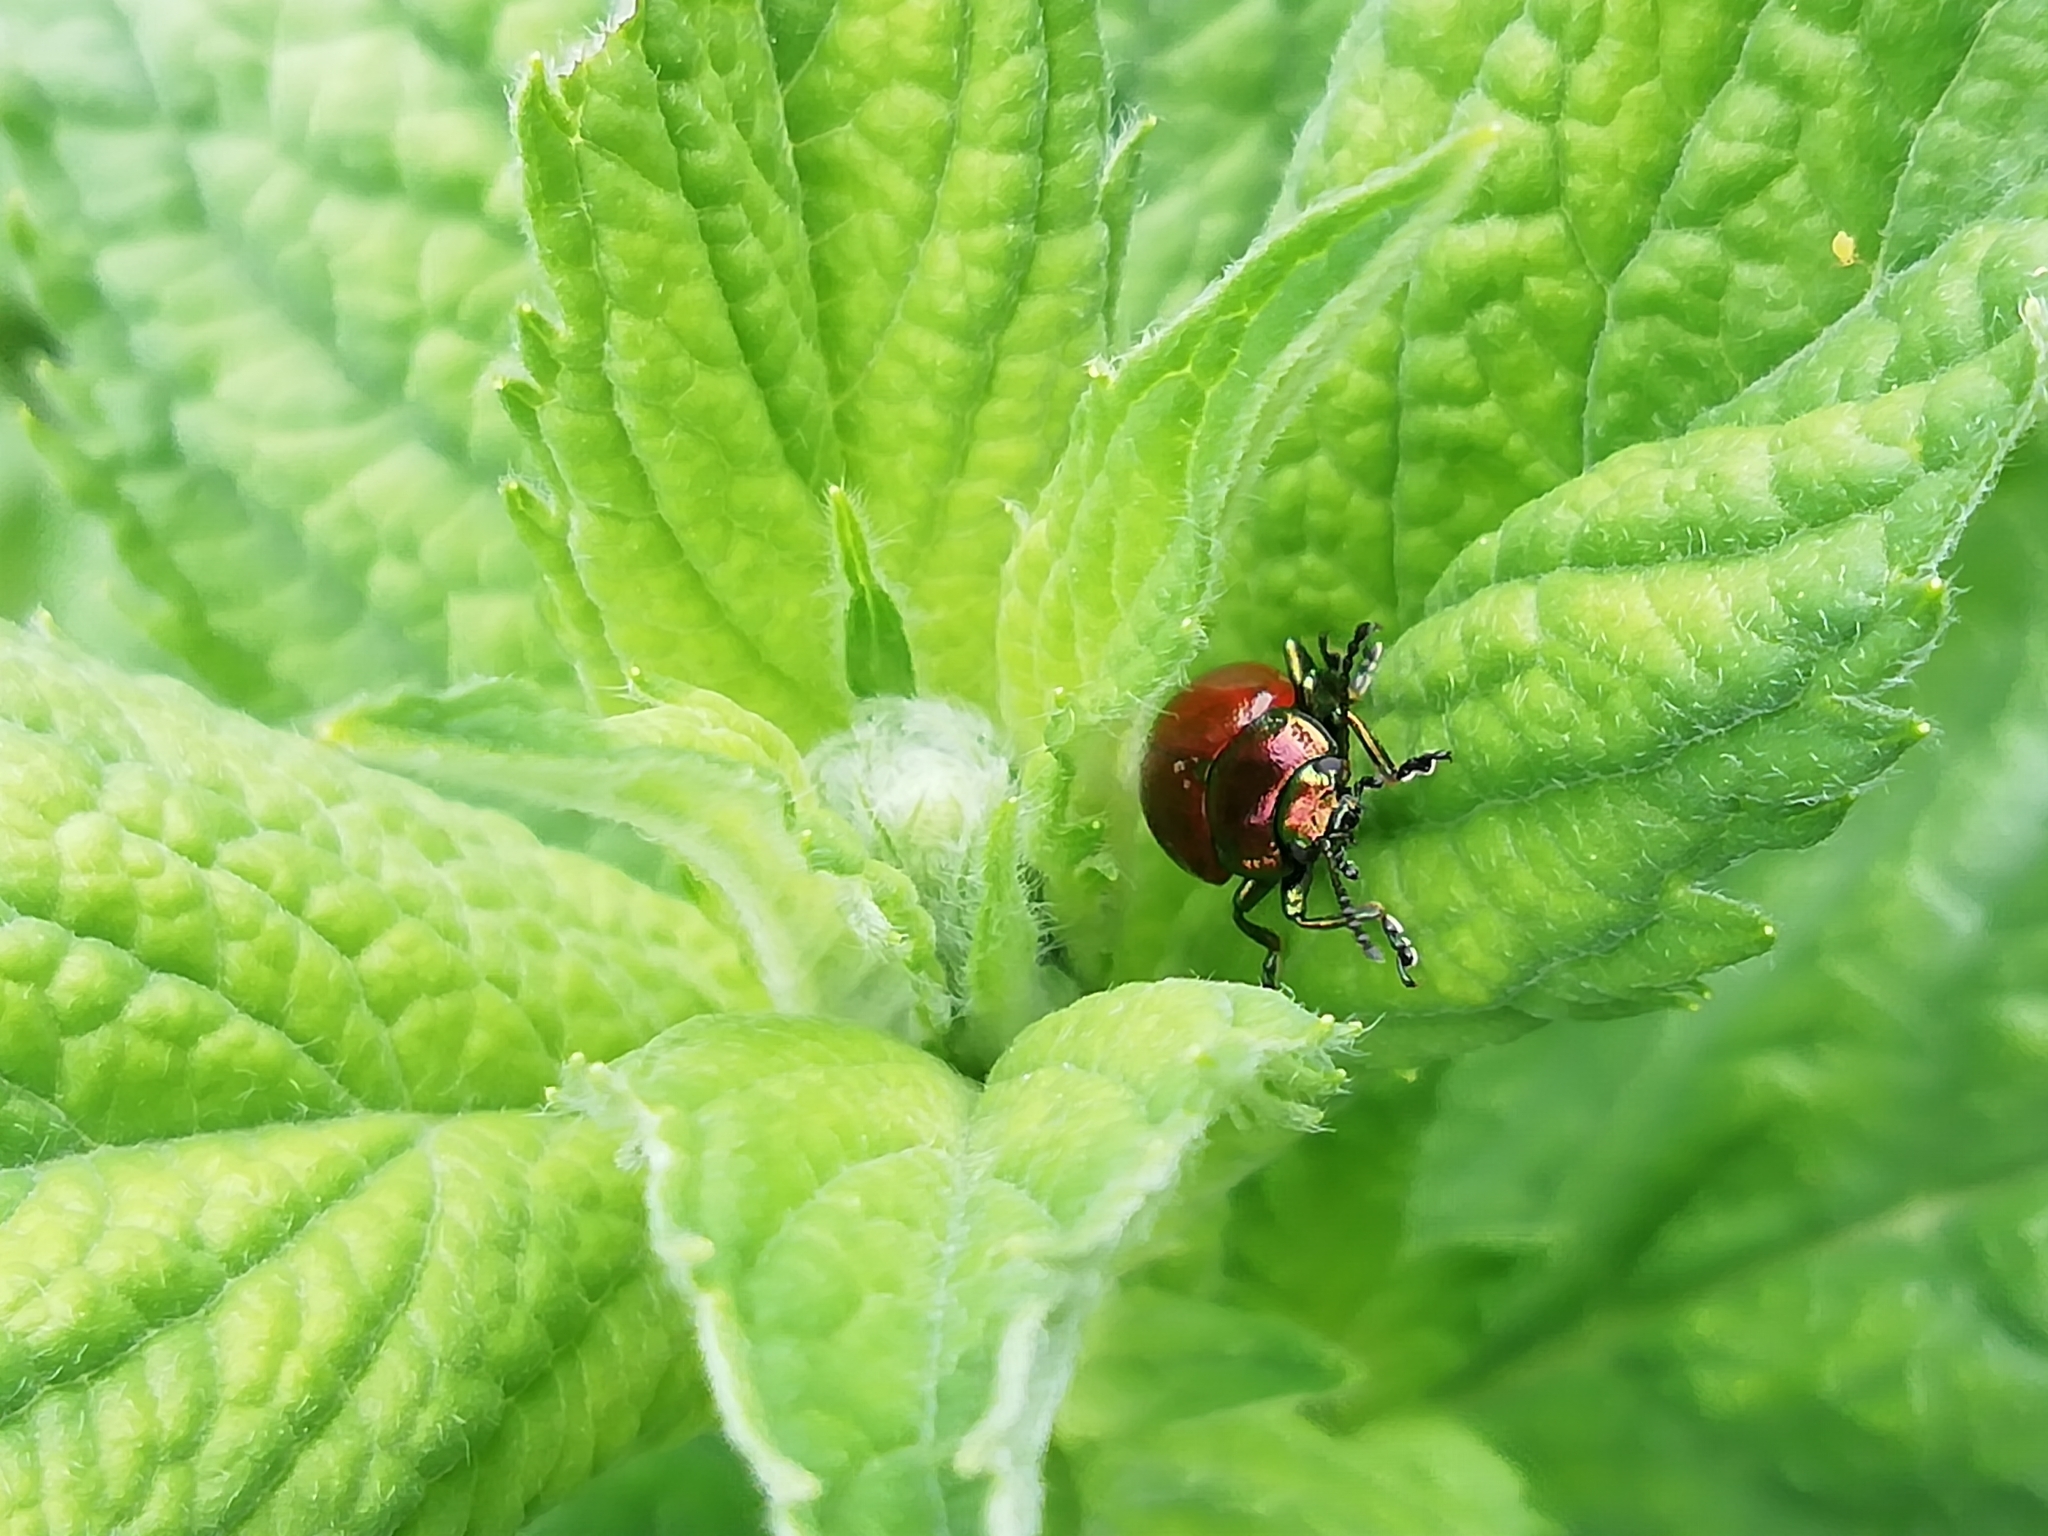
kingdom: Animalia
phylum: Arthropoda
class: Insecta
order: Coleoptera
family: Chrysomelidae
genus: Chrysomela
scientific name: Chrysomela polita
